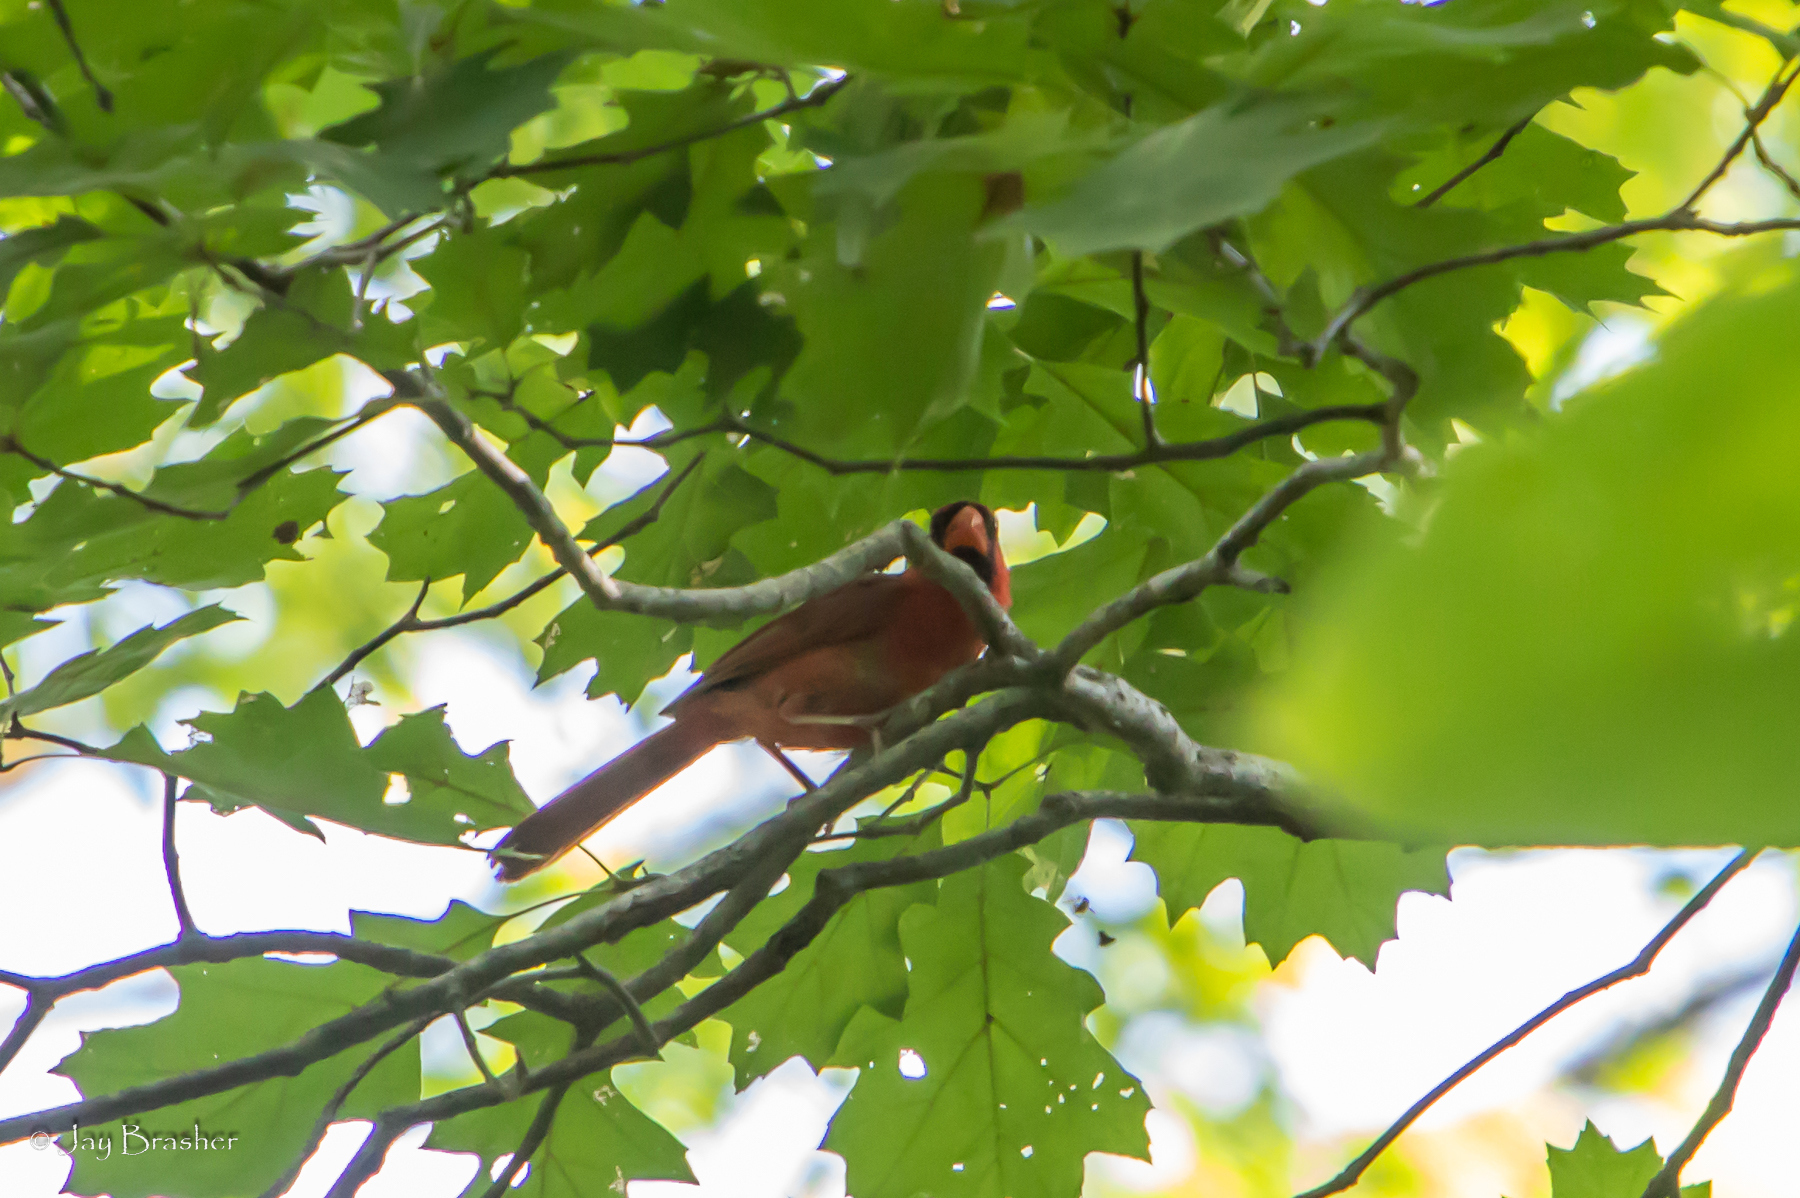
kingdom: Animalia
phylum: Chordata
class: Aves
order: Passeriformes
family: Cardinalidae
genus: Cardinalis
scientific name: Cardinalis cardinalis
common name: Northern cardinal
